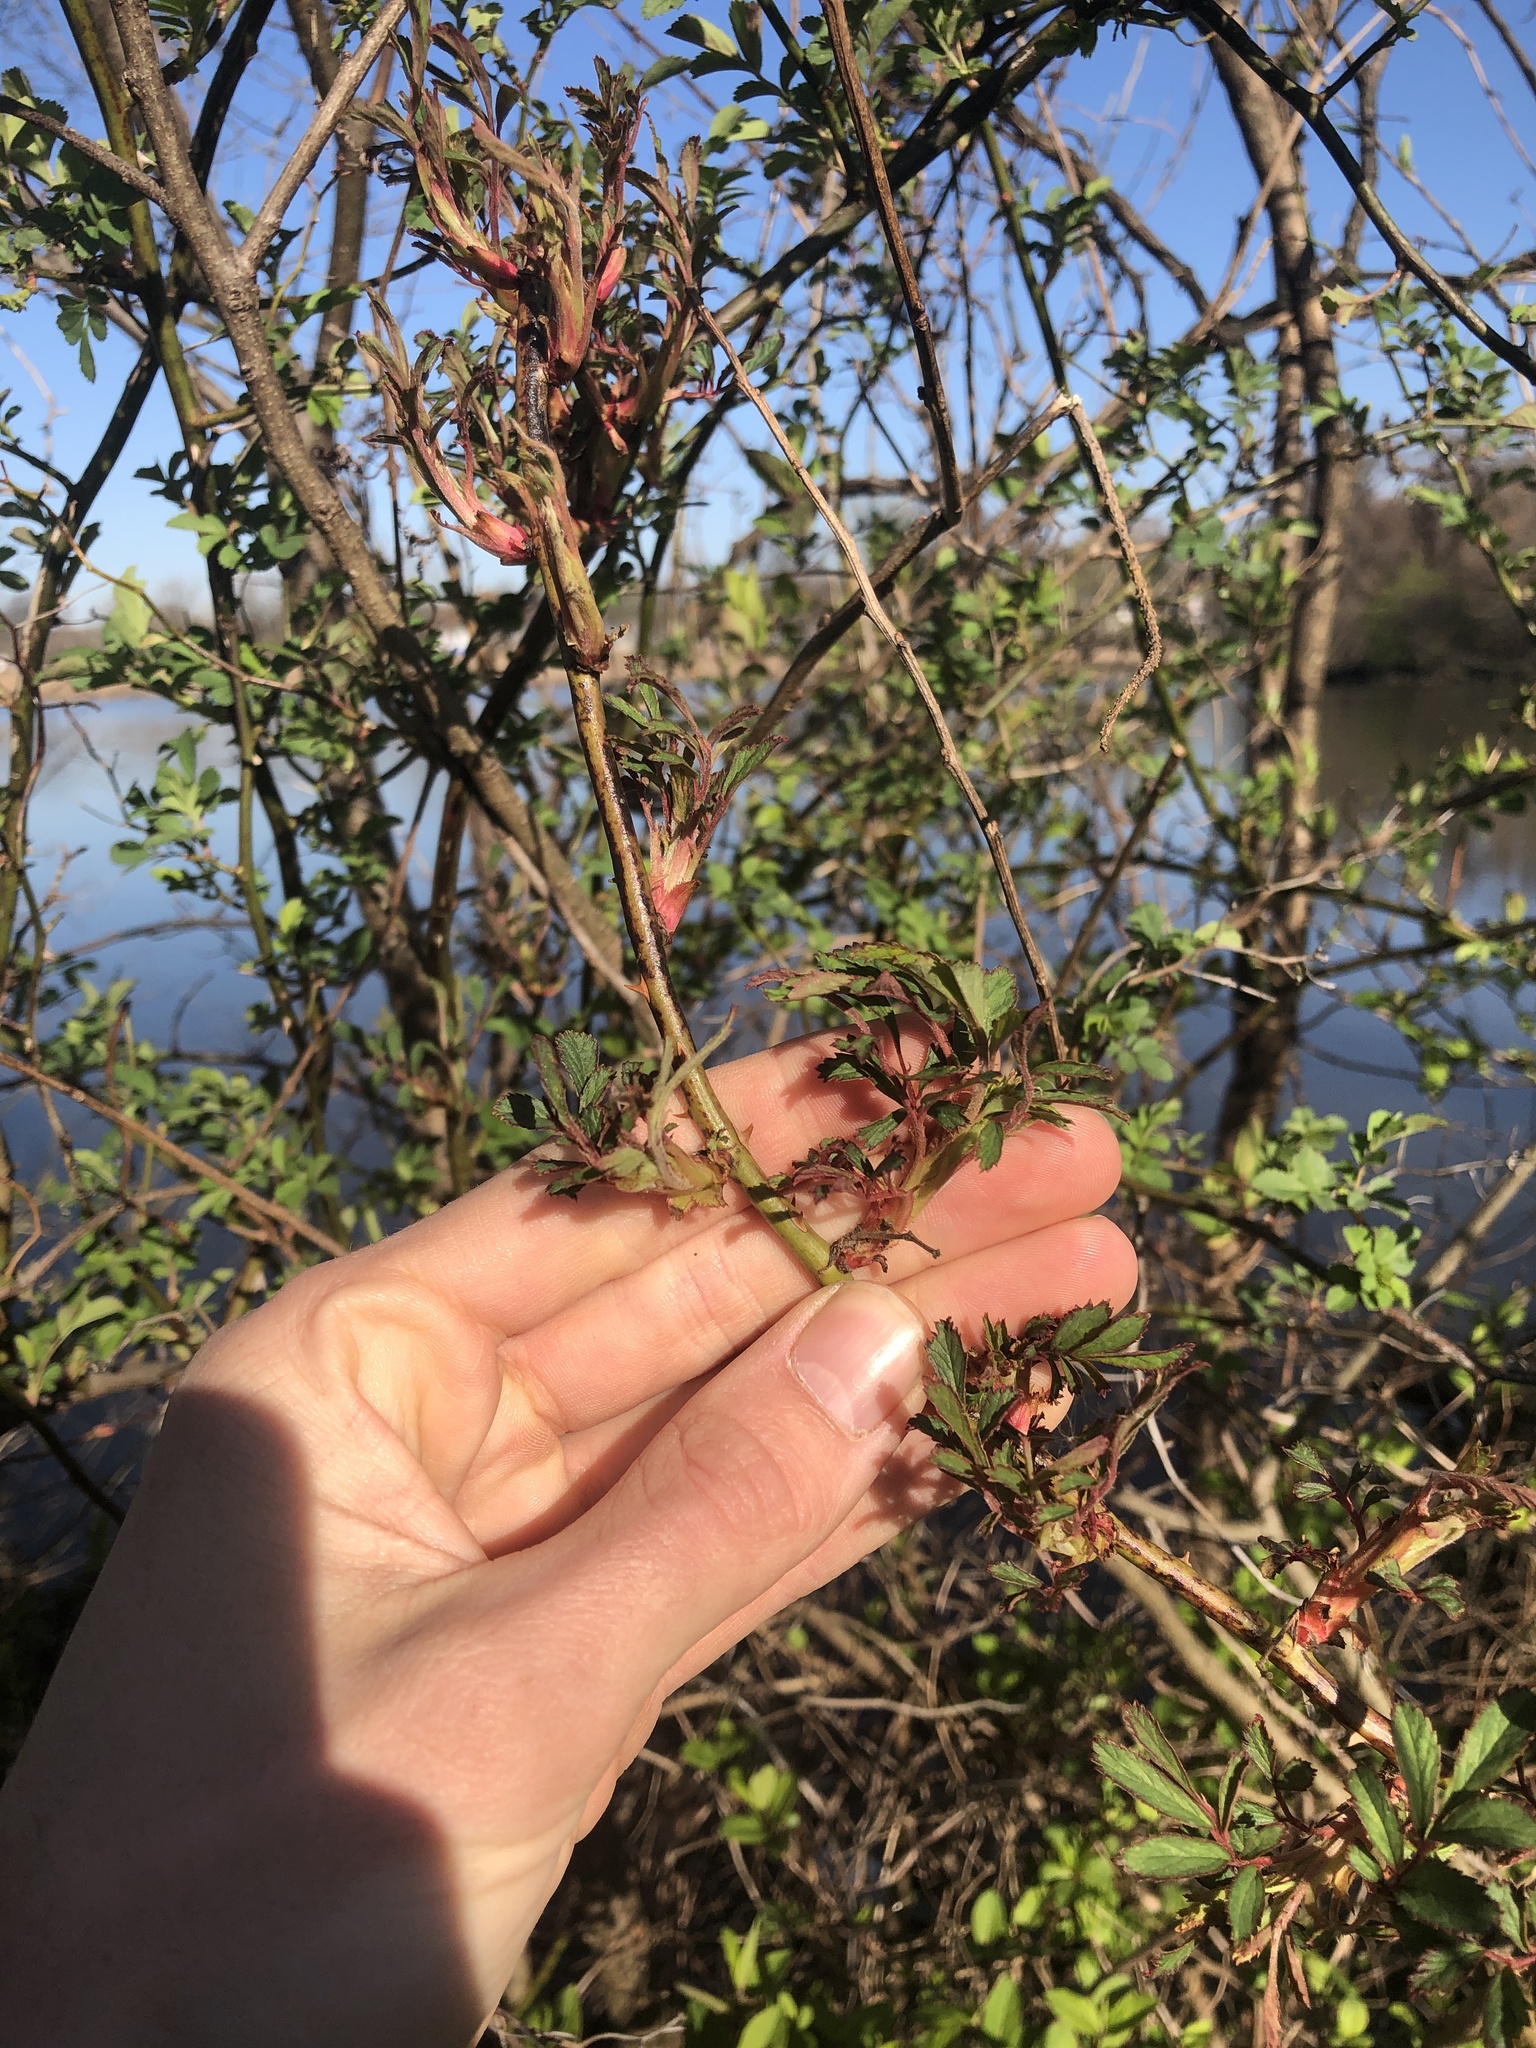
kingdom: Viruses
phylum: Negarnaviricota
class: Ellioviricetes
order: Bunyavirales
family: Fimoviridae
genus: Emaravirus
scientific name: Emaravirus rosae
